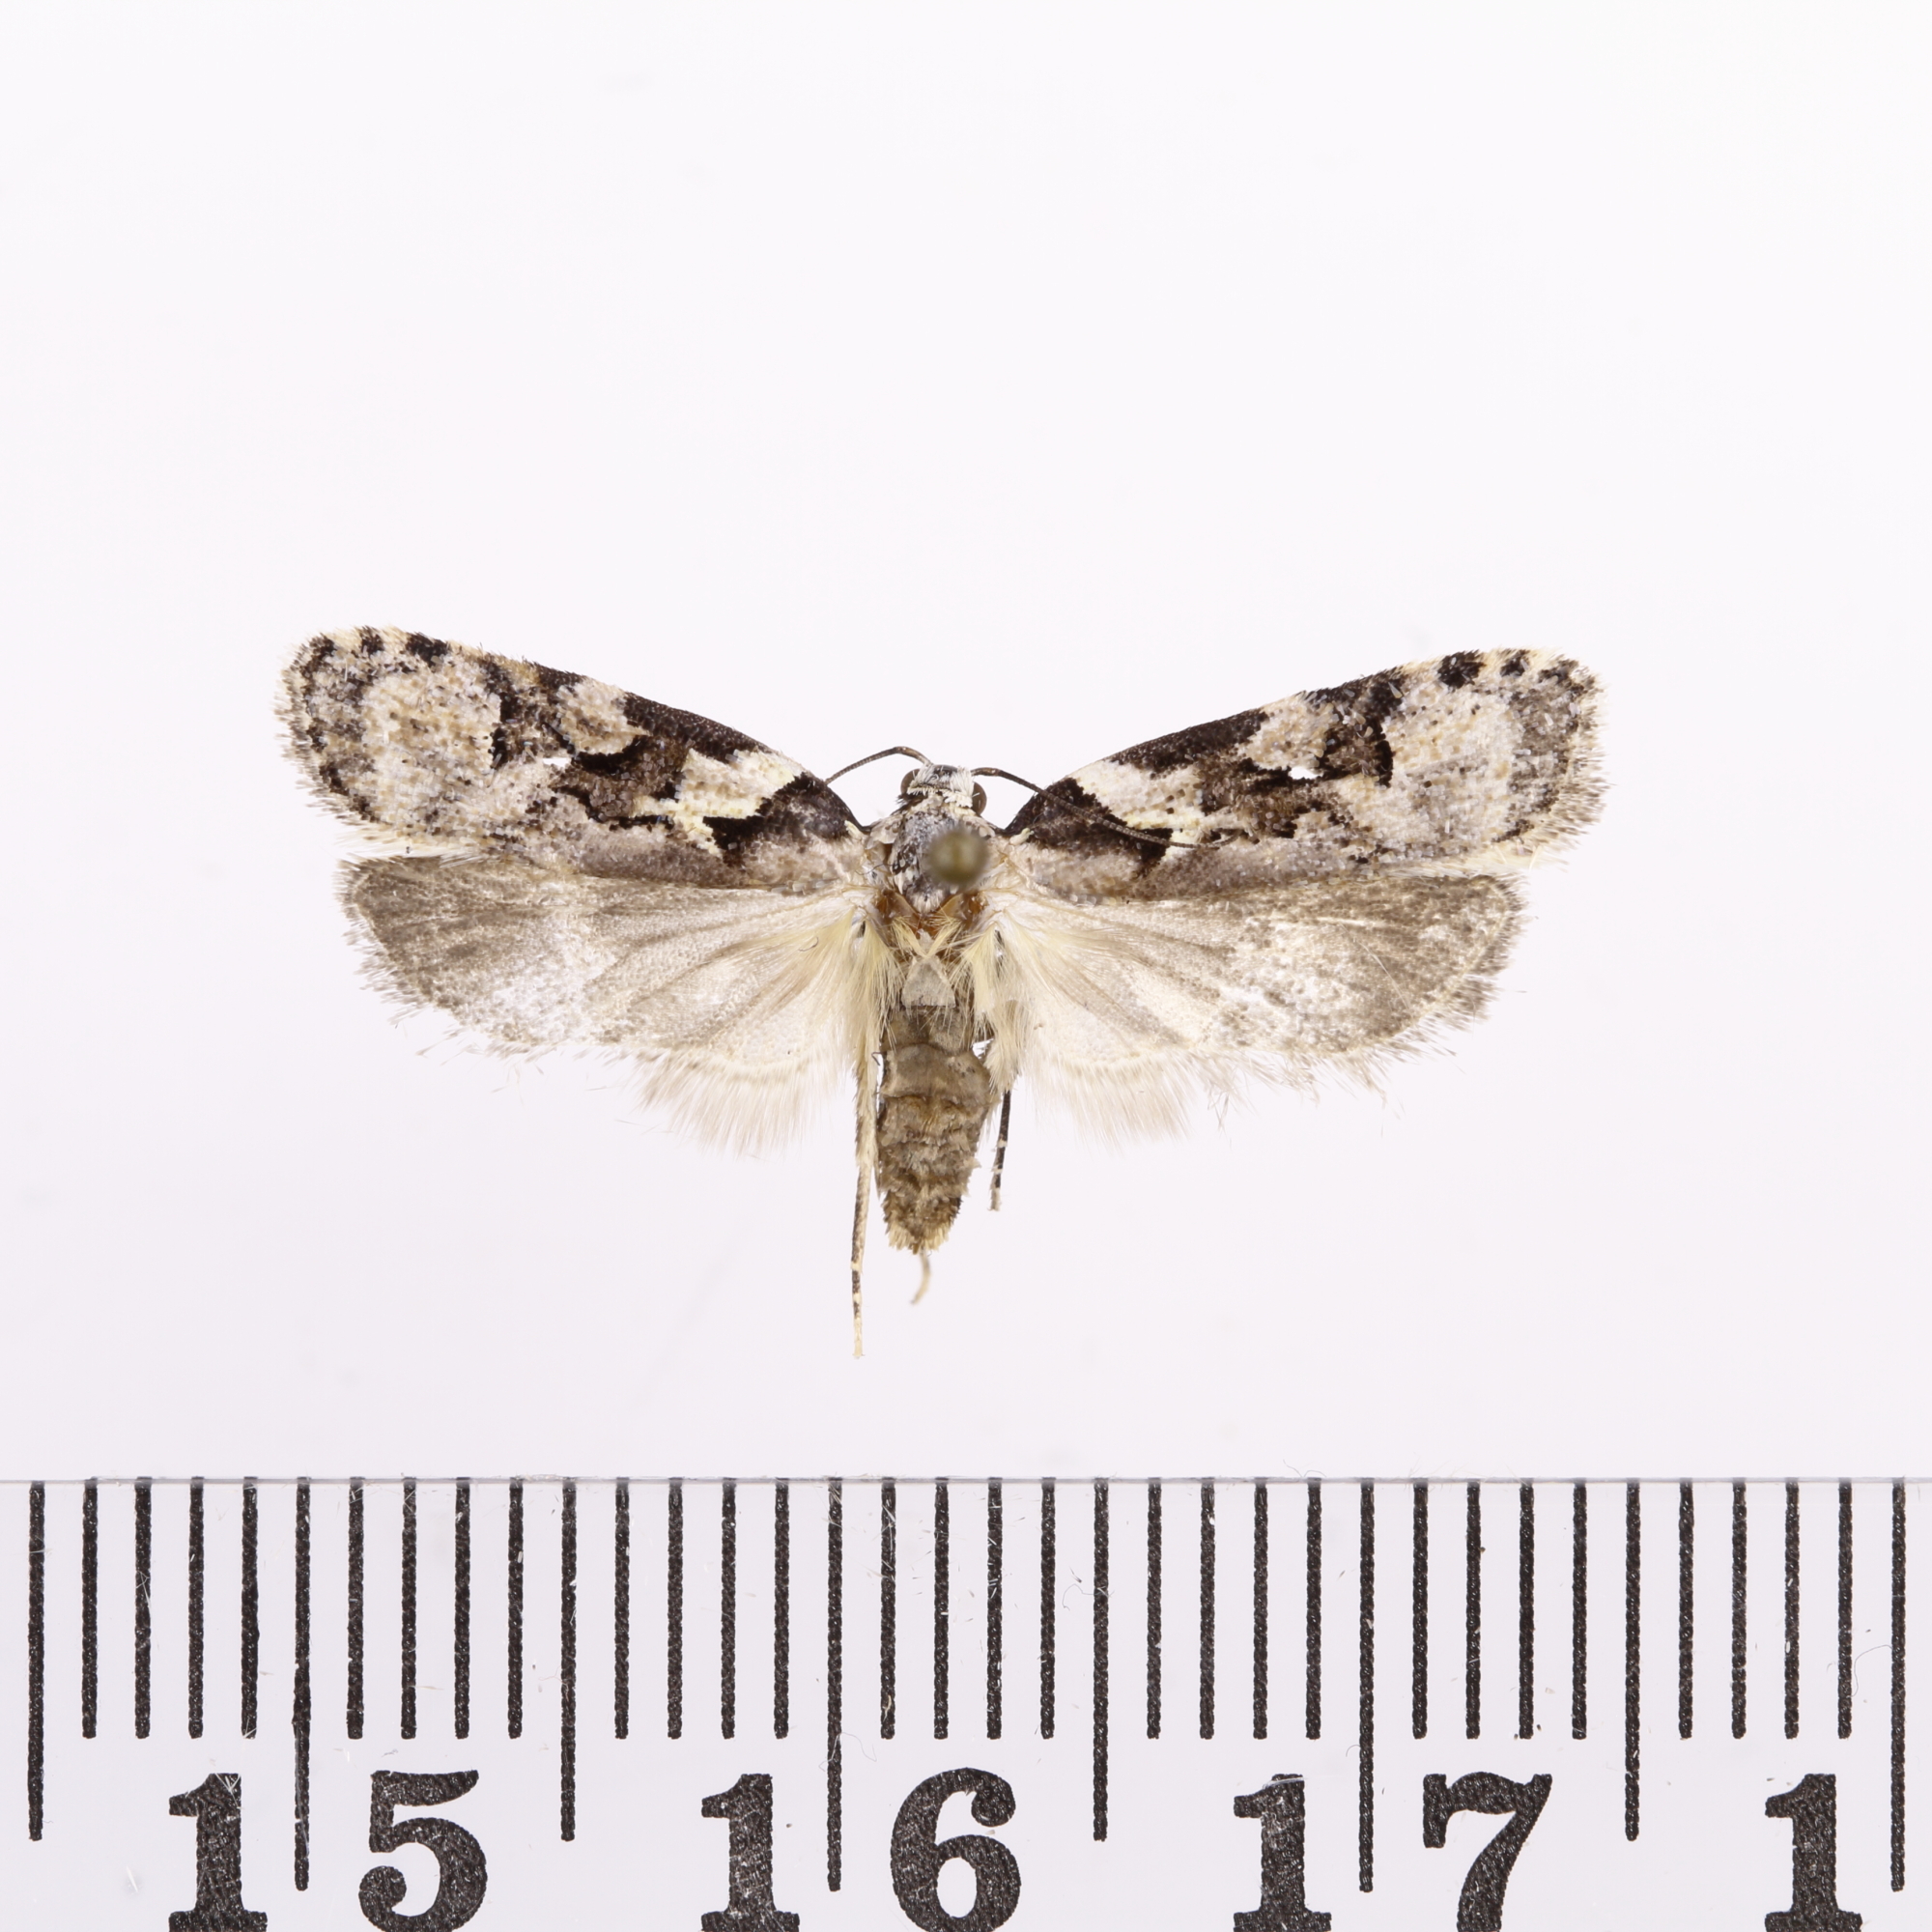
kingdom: Animalia
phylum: Arthropoda
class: Insecta
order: Lepidoptera
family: Oecophoridae
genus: Izatha
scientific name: Izatha epiphanes
